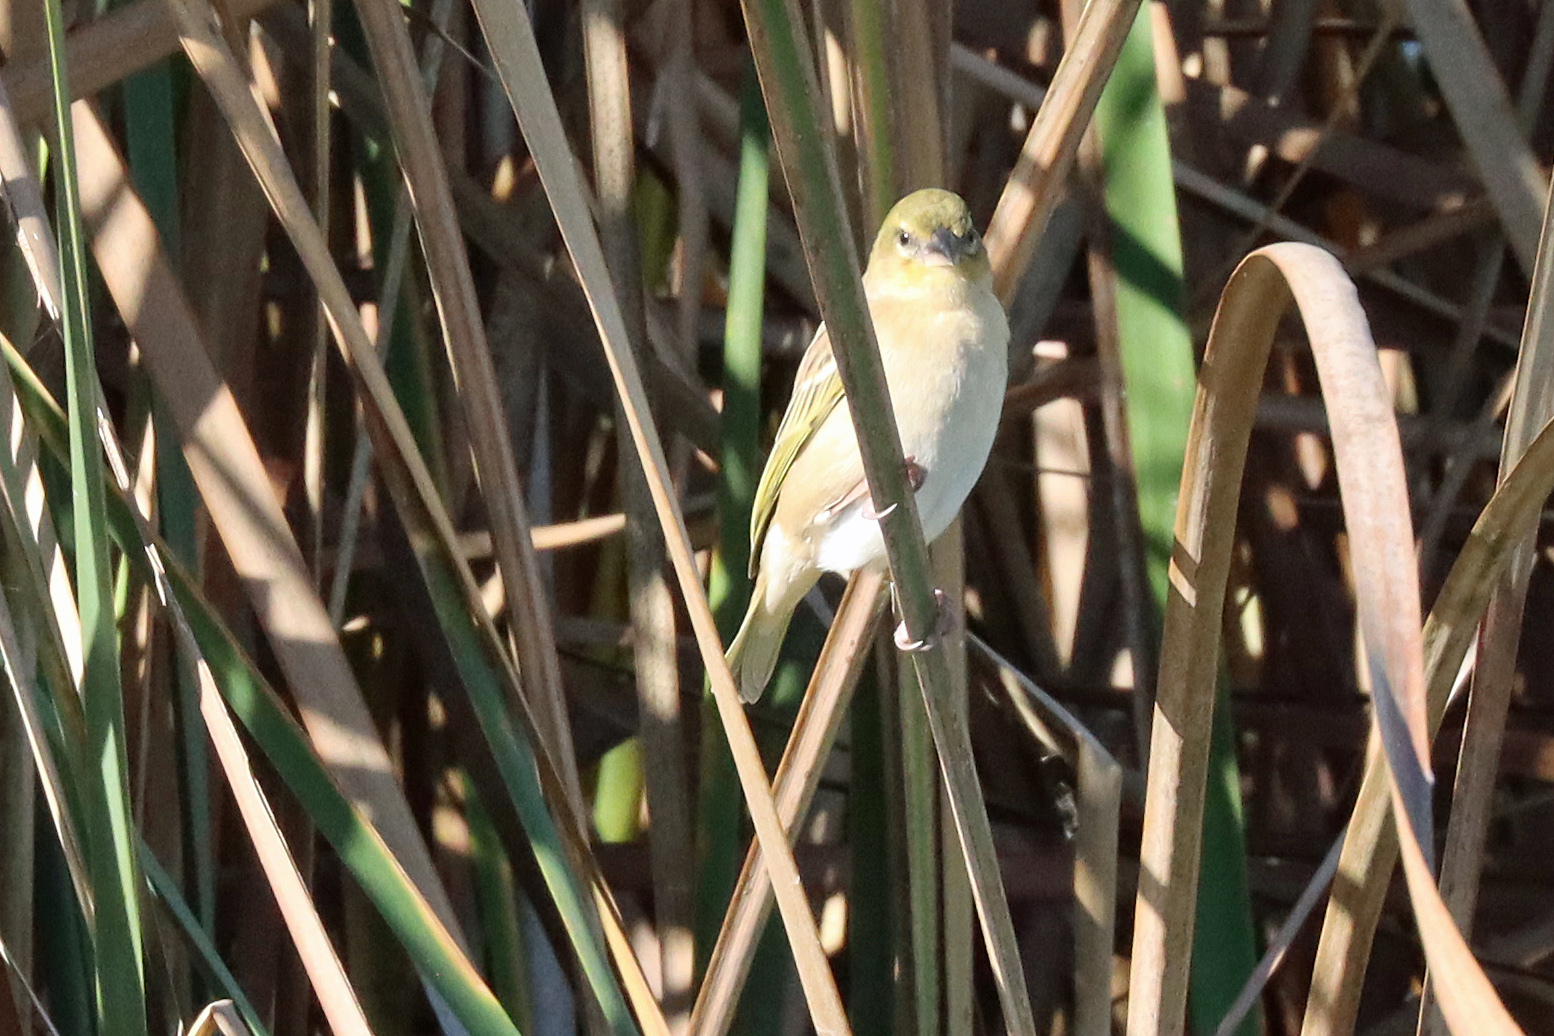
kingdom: Animalia
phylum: Chordata
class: Aves
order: Passeriformes
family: Ploceidae
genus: Ploceus
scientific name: Ploceus melanocephalus
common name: Black-headed weaver
